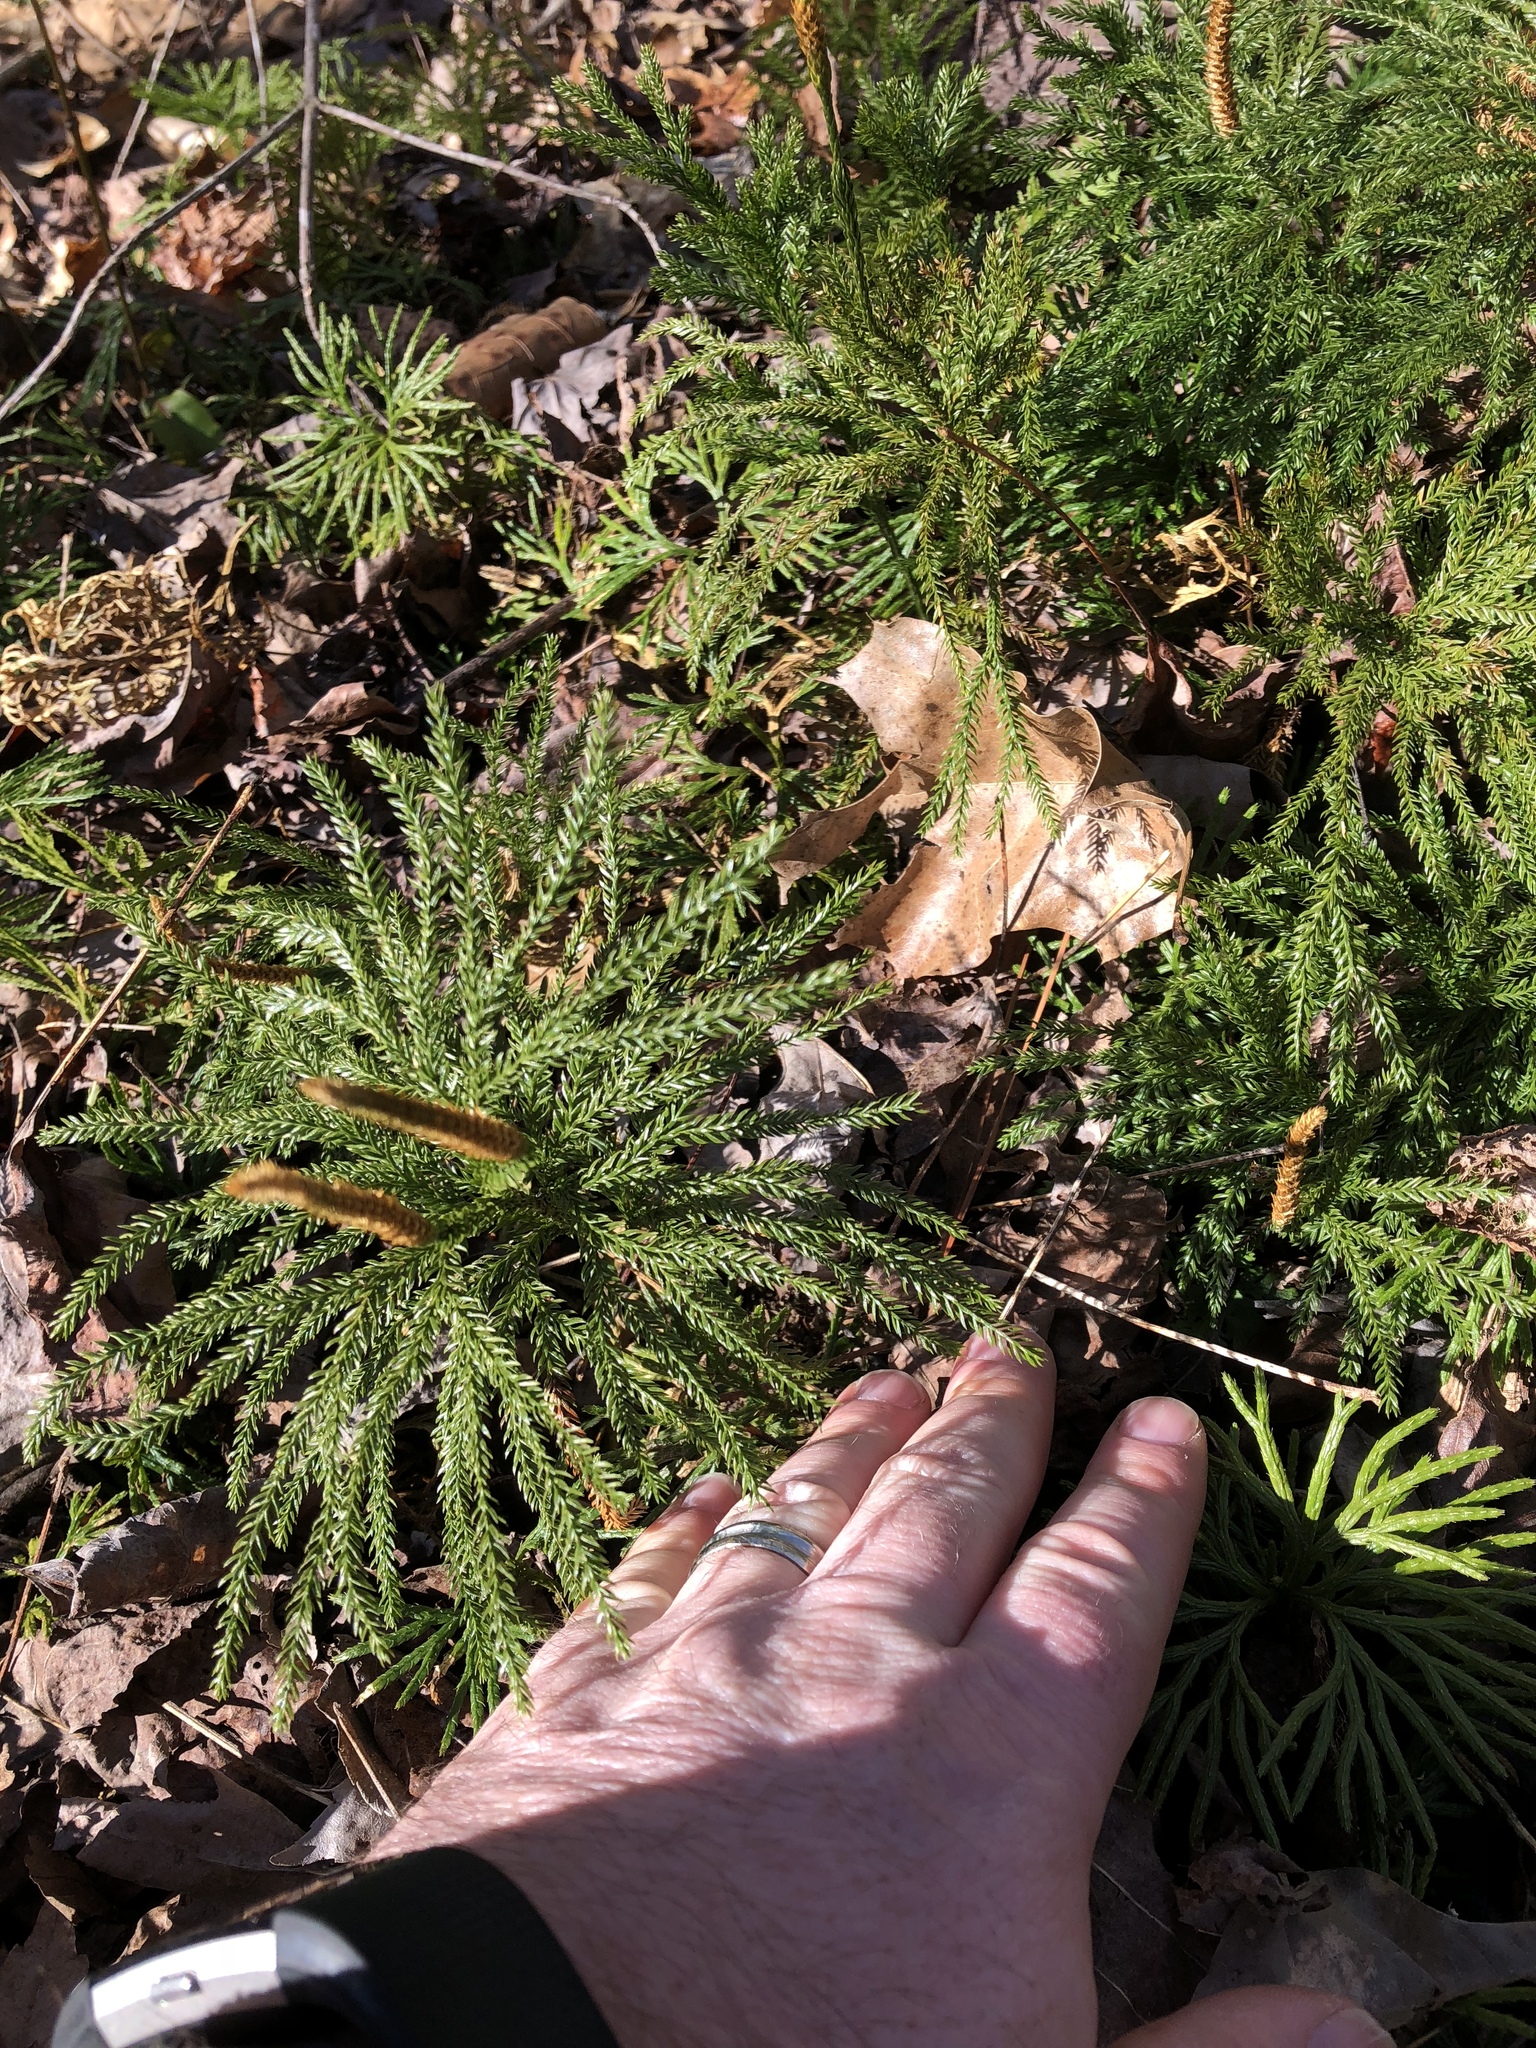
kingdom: Plantae
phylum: Tracheophyta
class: Lycopodiopsida
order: Lycopodiales
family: Lycopodiaceae
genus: Dendrolycopodium
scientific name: Dendrolycopodium obscurum
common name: Common ground-pine
